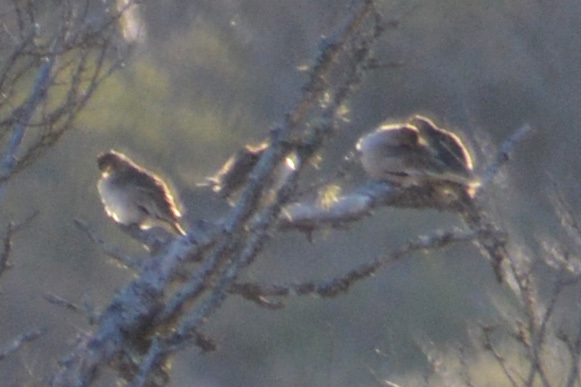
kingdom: Animalia
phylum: Chordata
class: Aves
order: Columbiformes
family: Columbidae
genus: Columbina
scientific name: Columbina picui
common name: Picui ground dove
